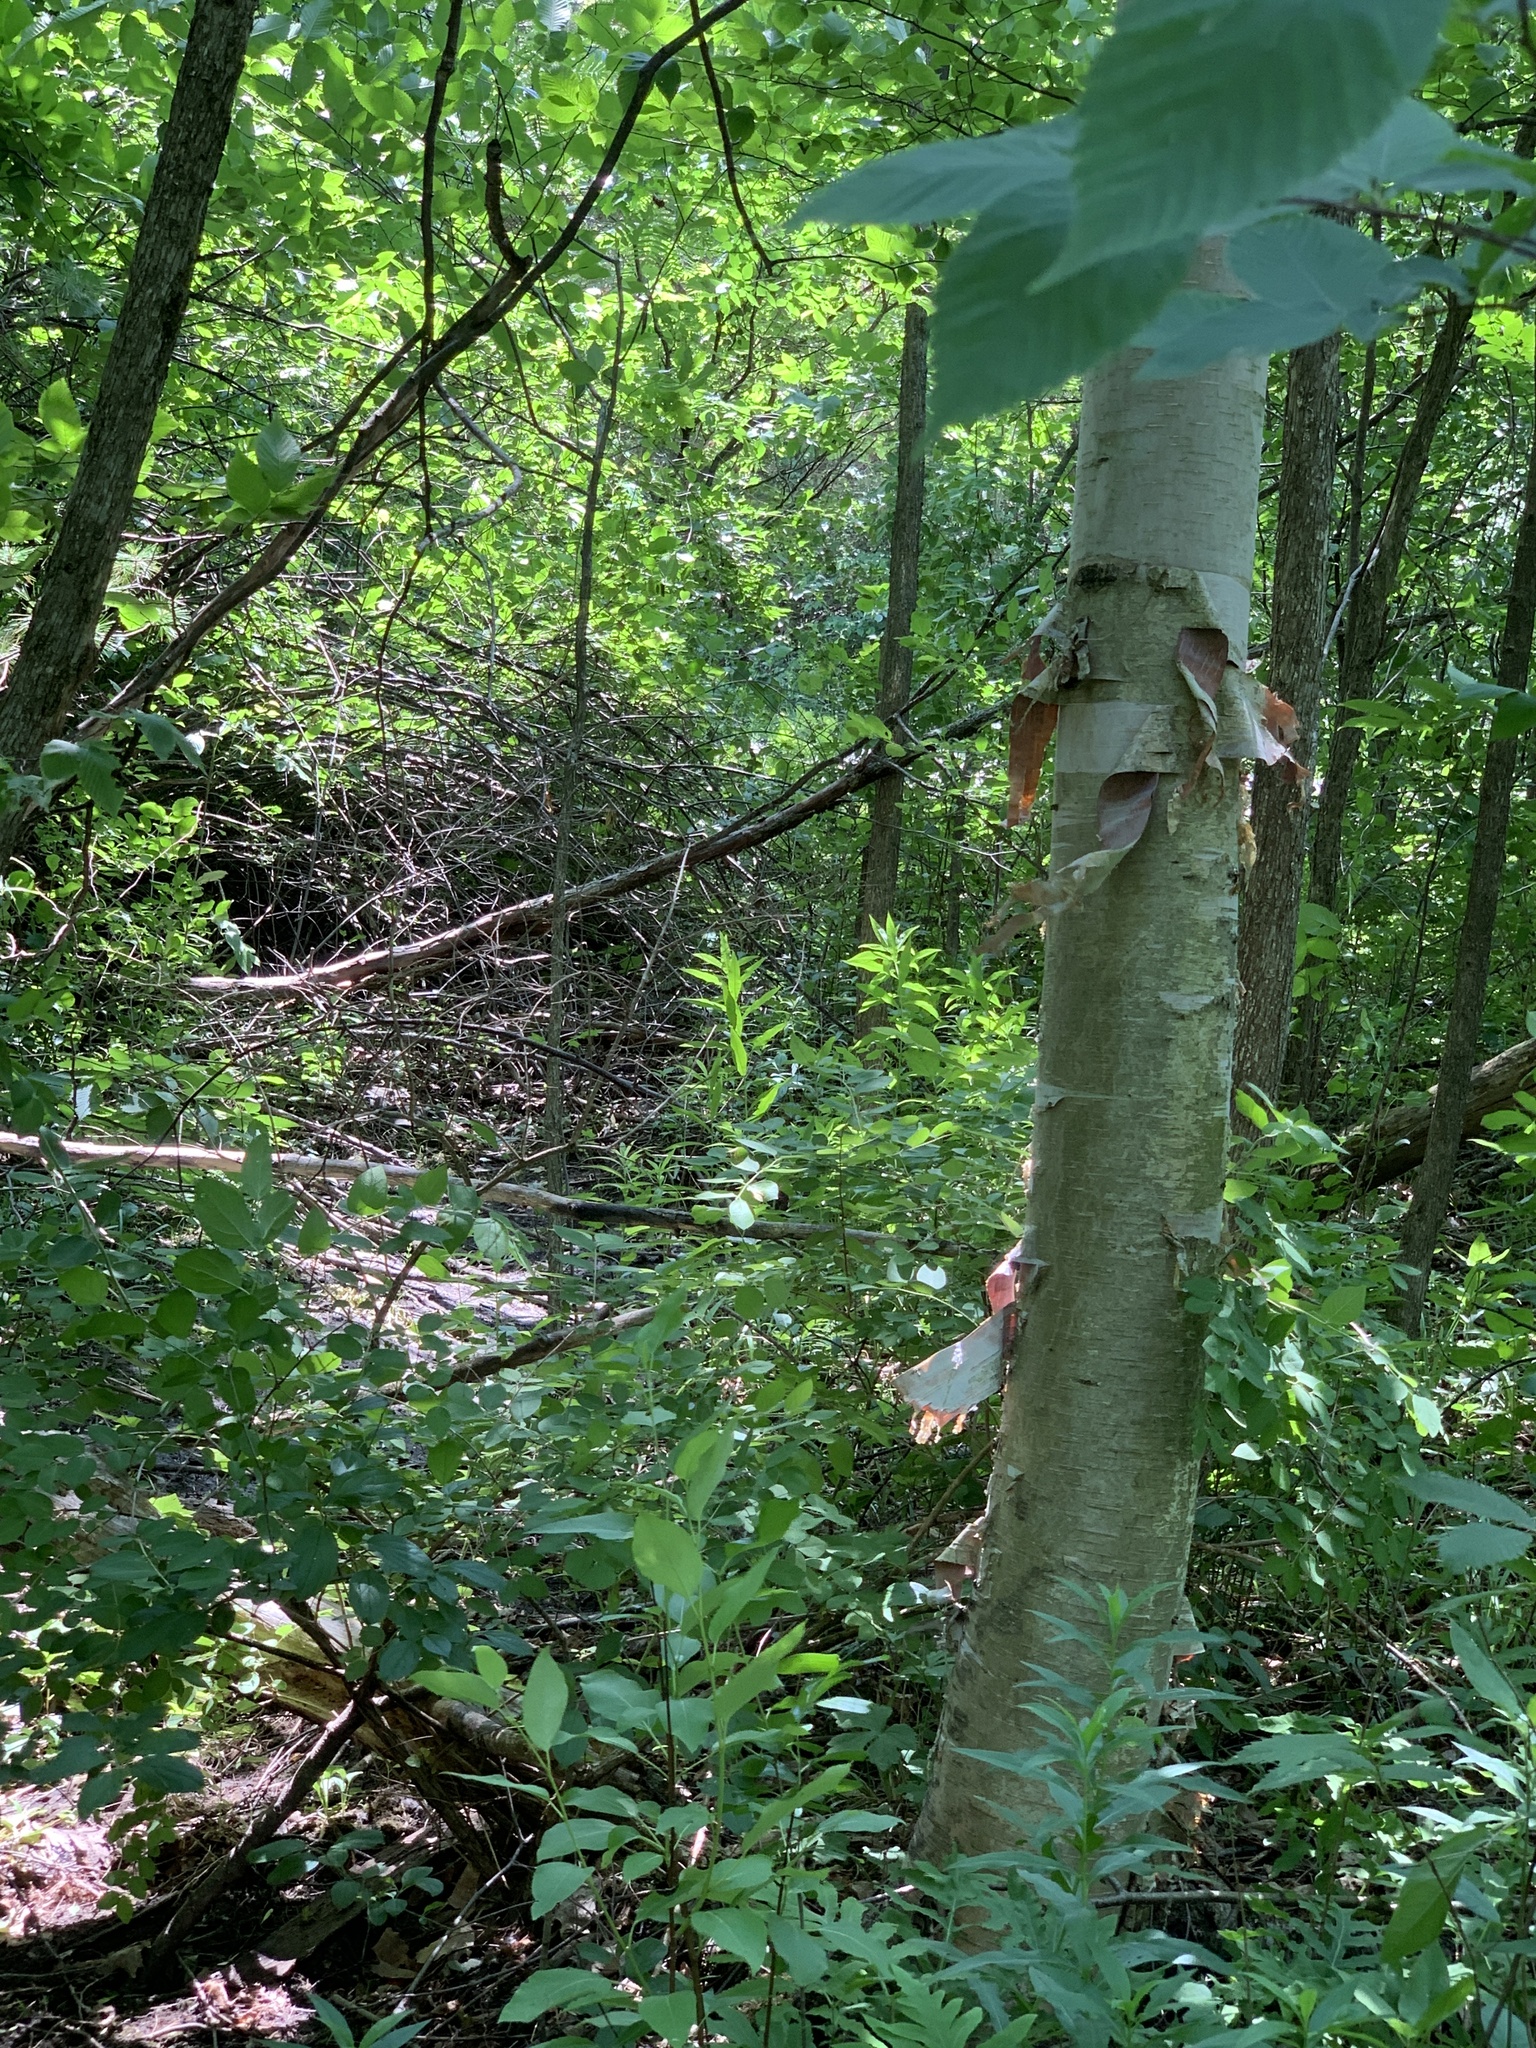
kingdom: Plantae
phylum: Tracheophyta
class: Magnoliopsida
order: Fagales
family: Betulaceae
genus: Betula
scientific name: Betula papyrifera
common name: Paper birch
